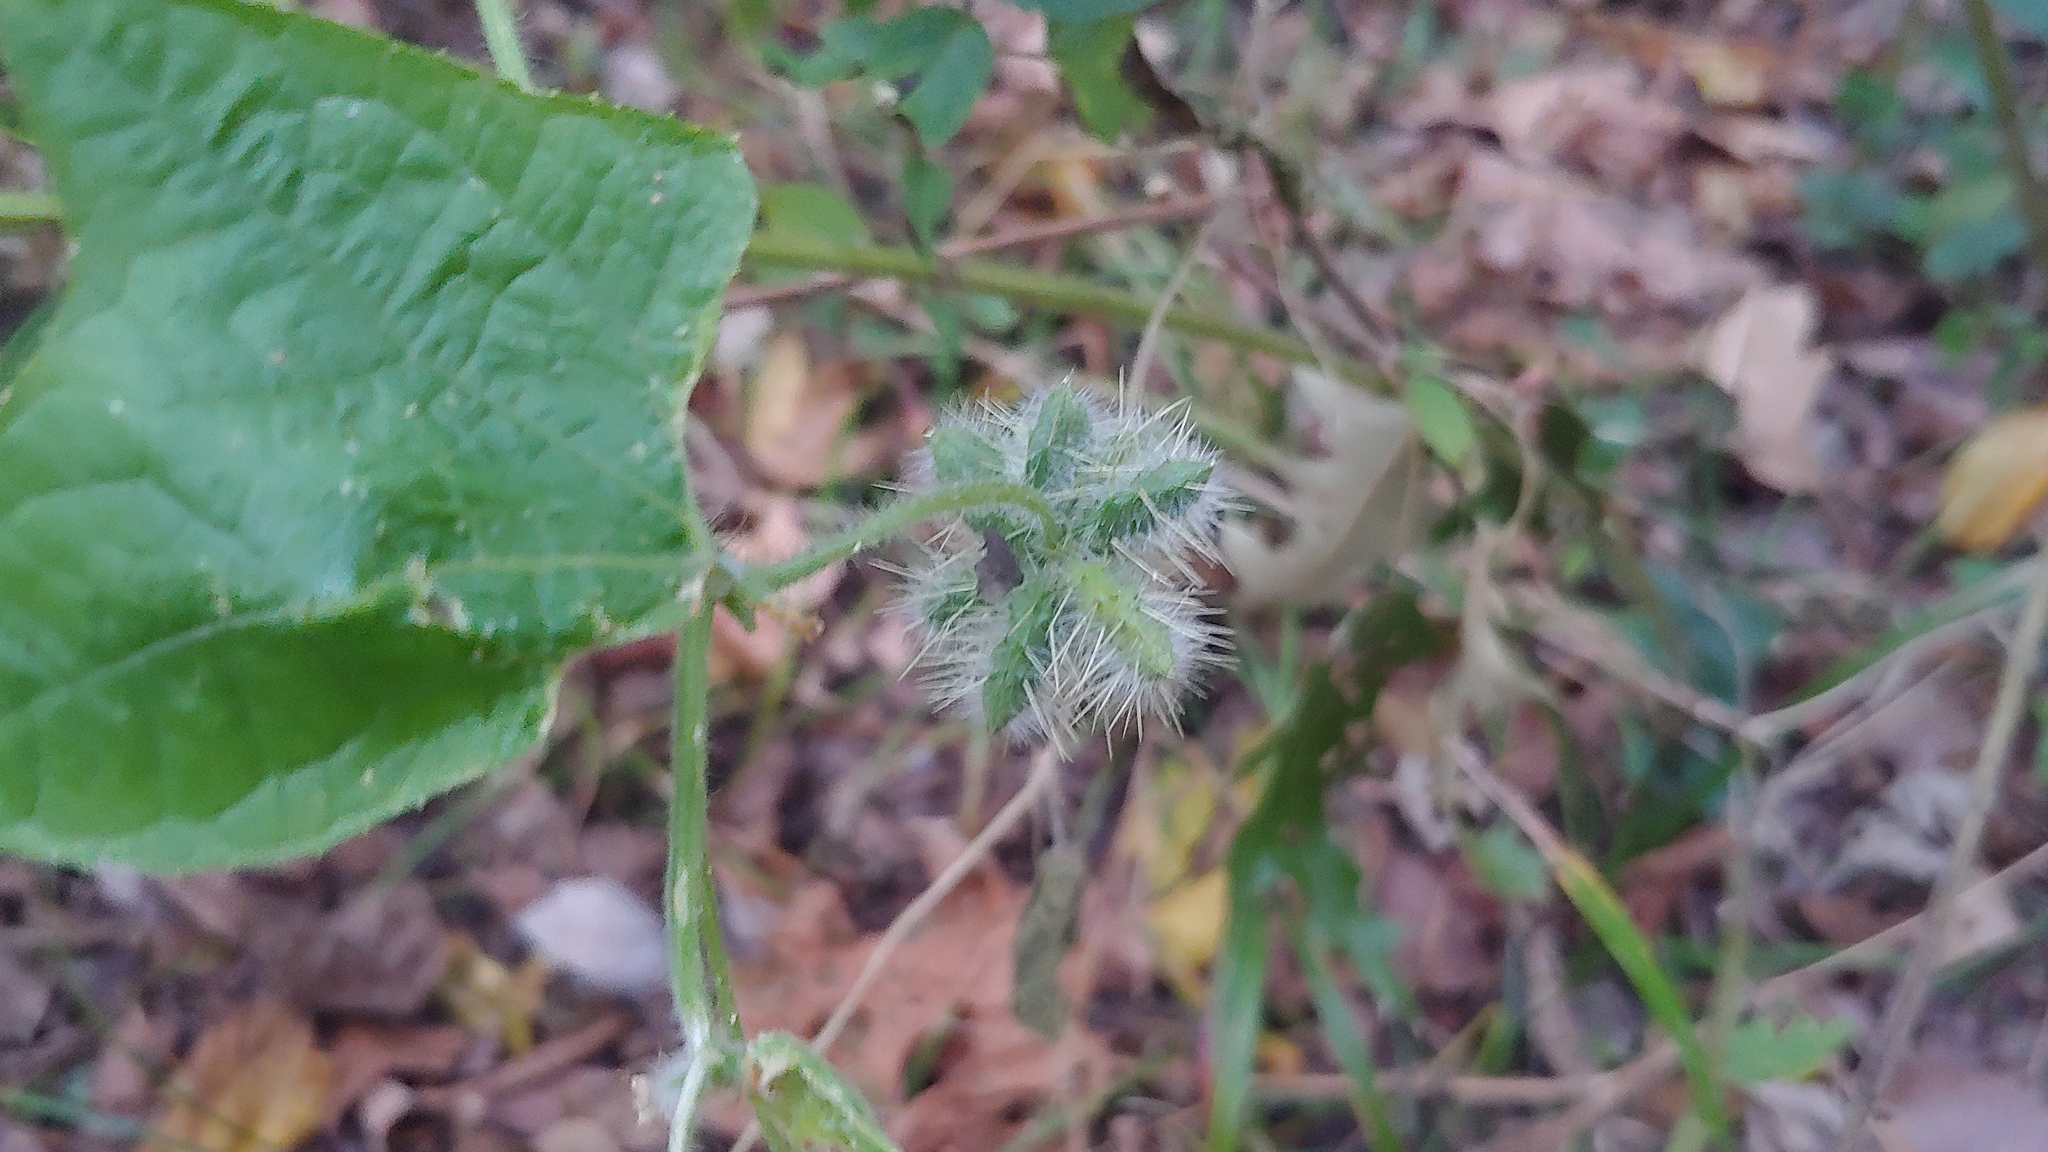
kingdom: Plantae
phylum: Tracheophyta
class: Magnoliopsida
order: Cucurbitales
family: Cucurbitaceae
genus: Sicyos
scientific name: Sicyos angulatus
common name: Angled burr cucumber
